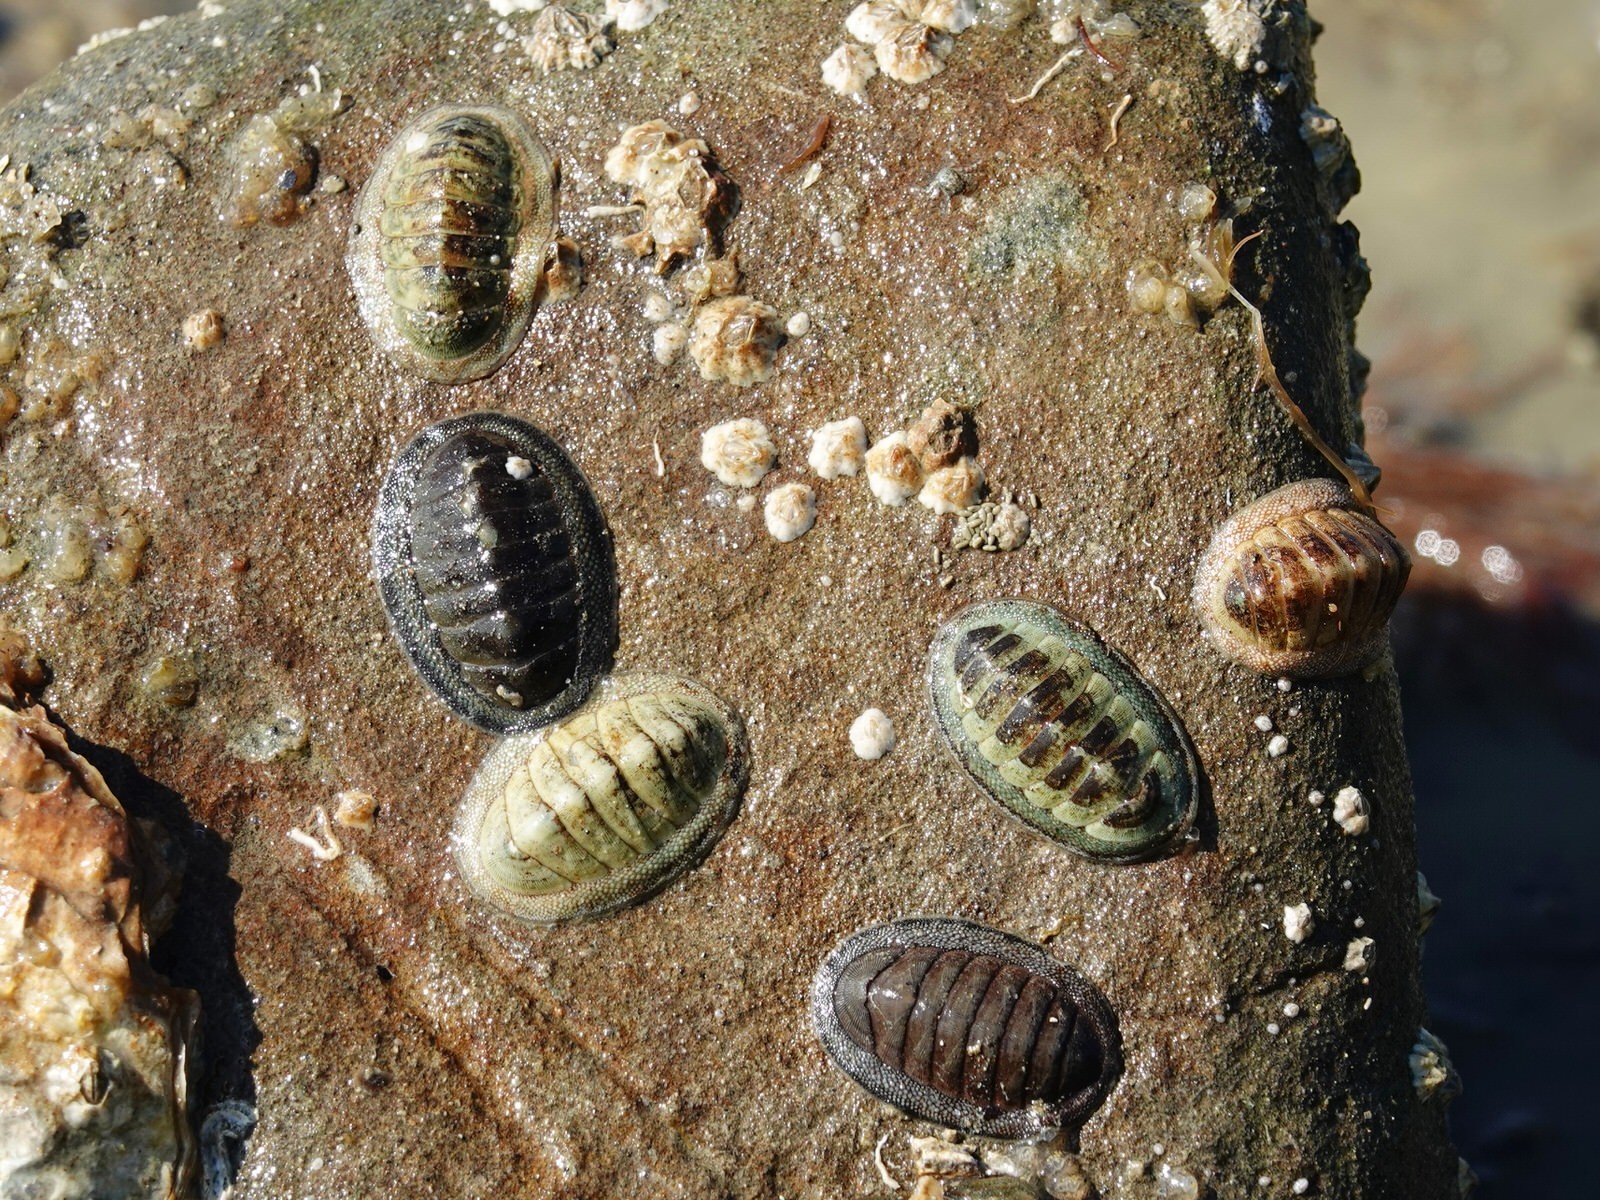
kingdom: Animalia
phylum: Mollusca
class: Polyplacophora
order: Chitonida
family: Chitonidae
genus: Chiton
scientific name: Chiton glaucus
